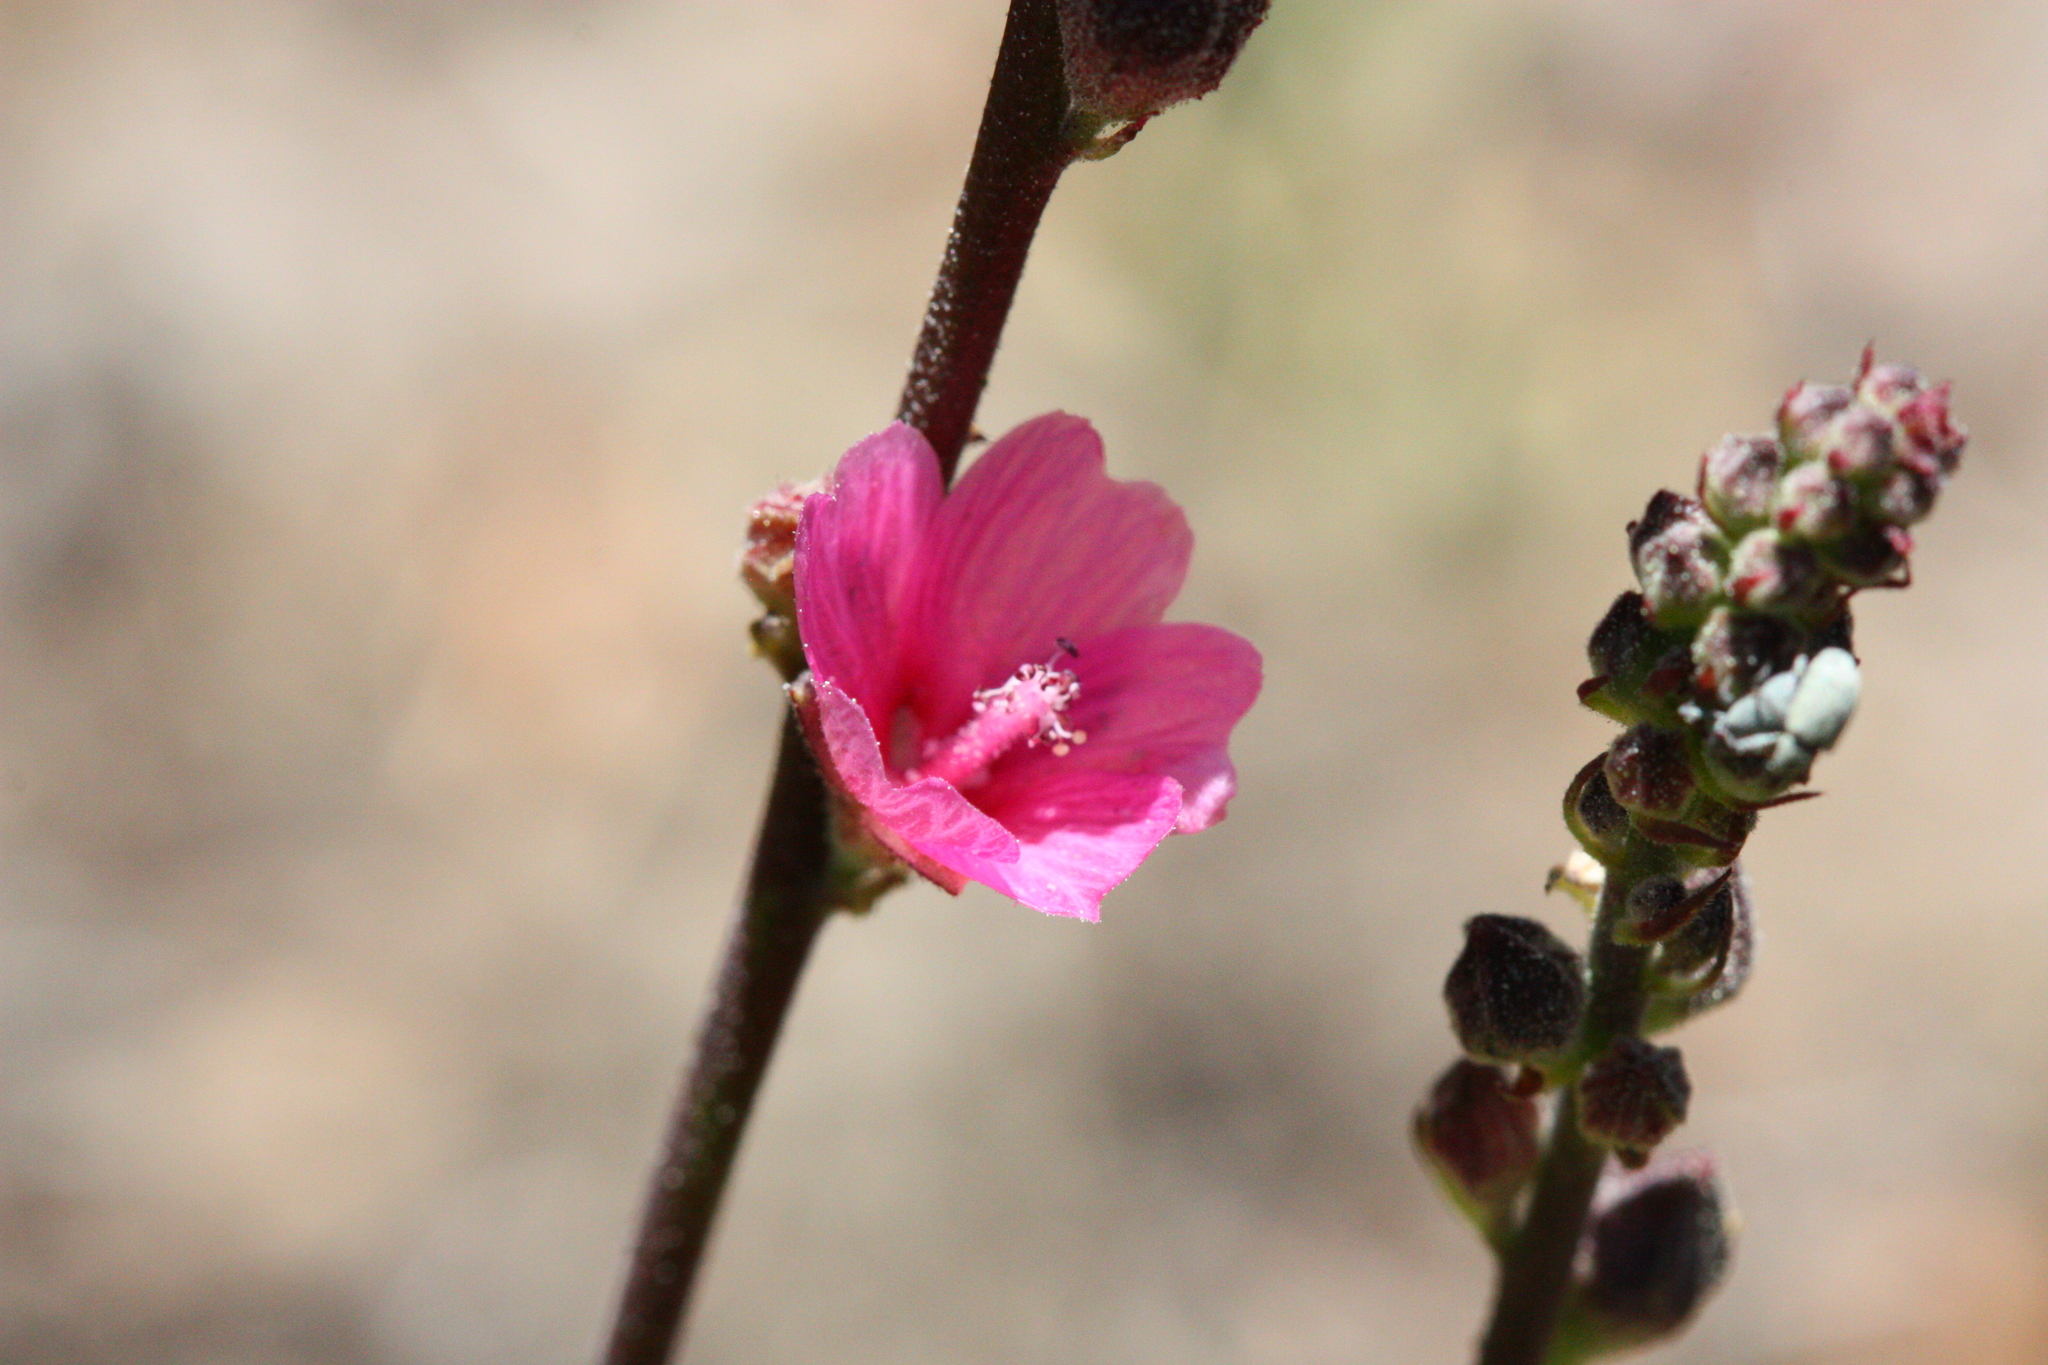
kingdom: Plantae
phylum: Tracheophyta
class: Magnoliopsida
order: Malvales
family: Malvaceae
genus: Sidalcea
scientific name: Sidalcea oregana
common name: Oregon checker-mallow
